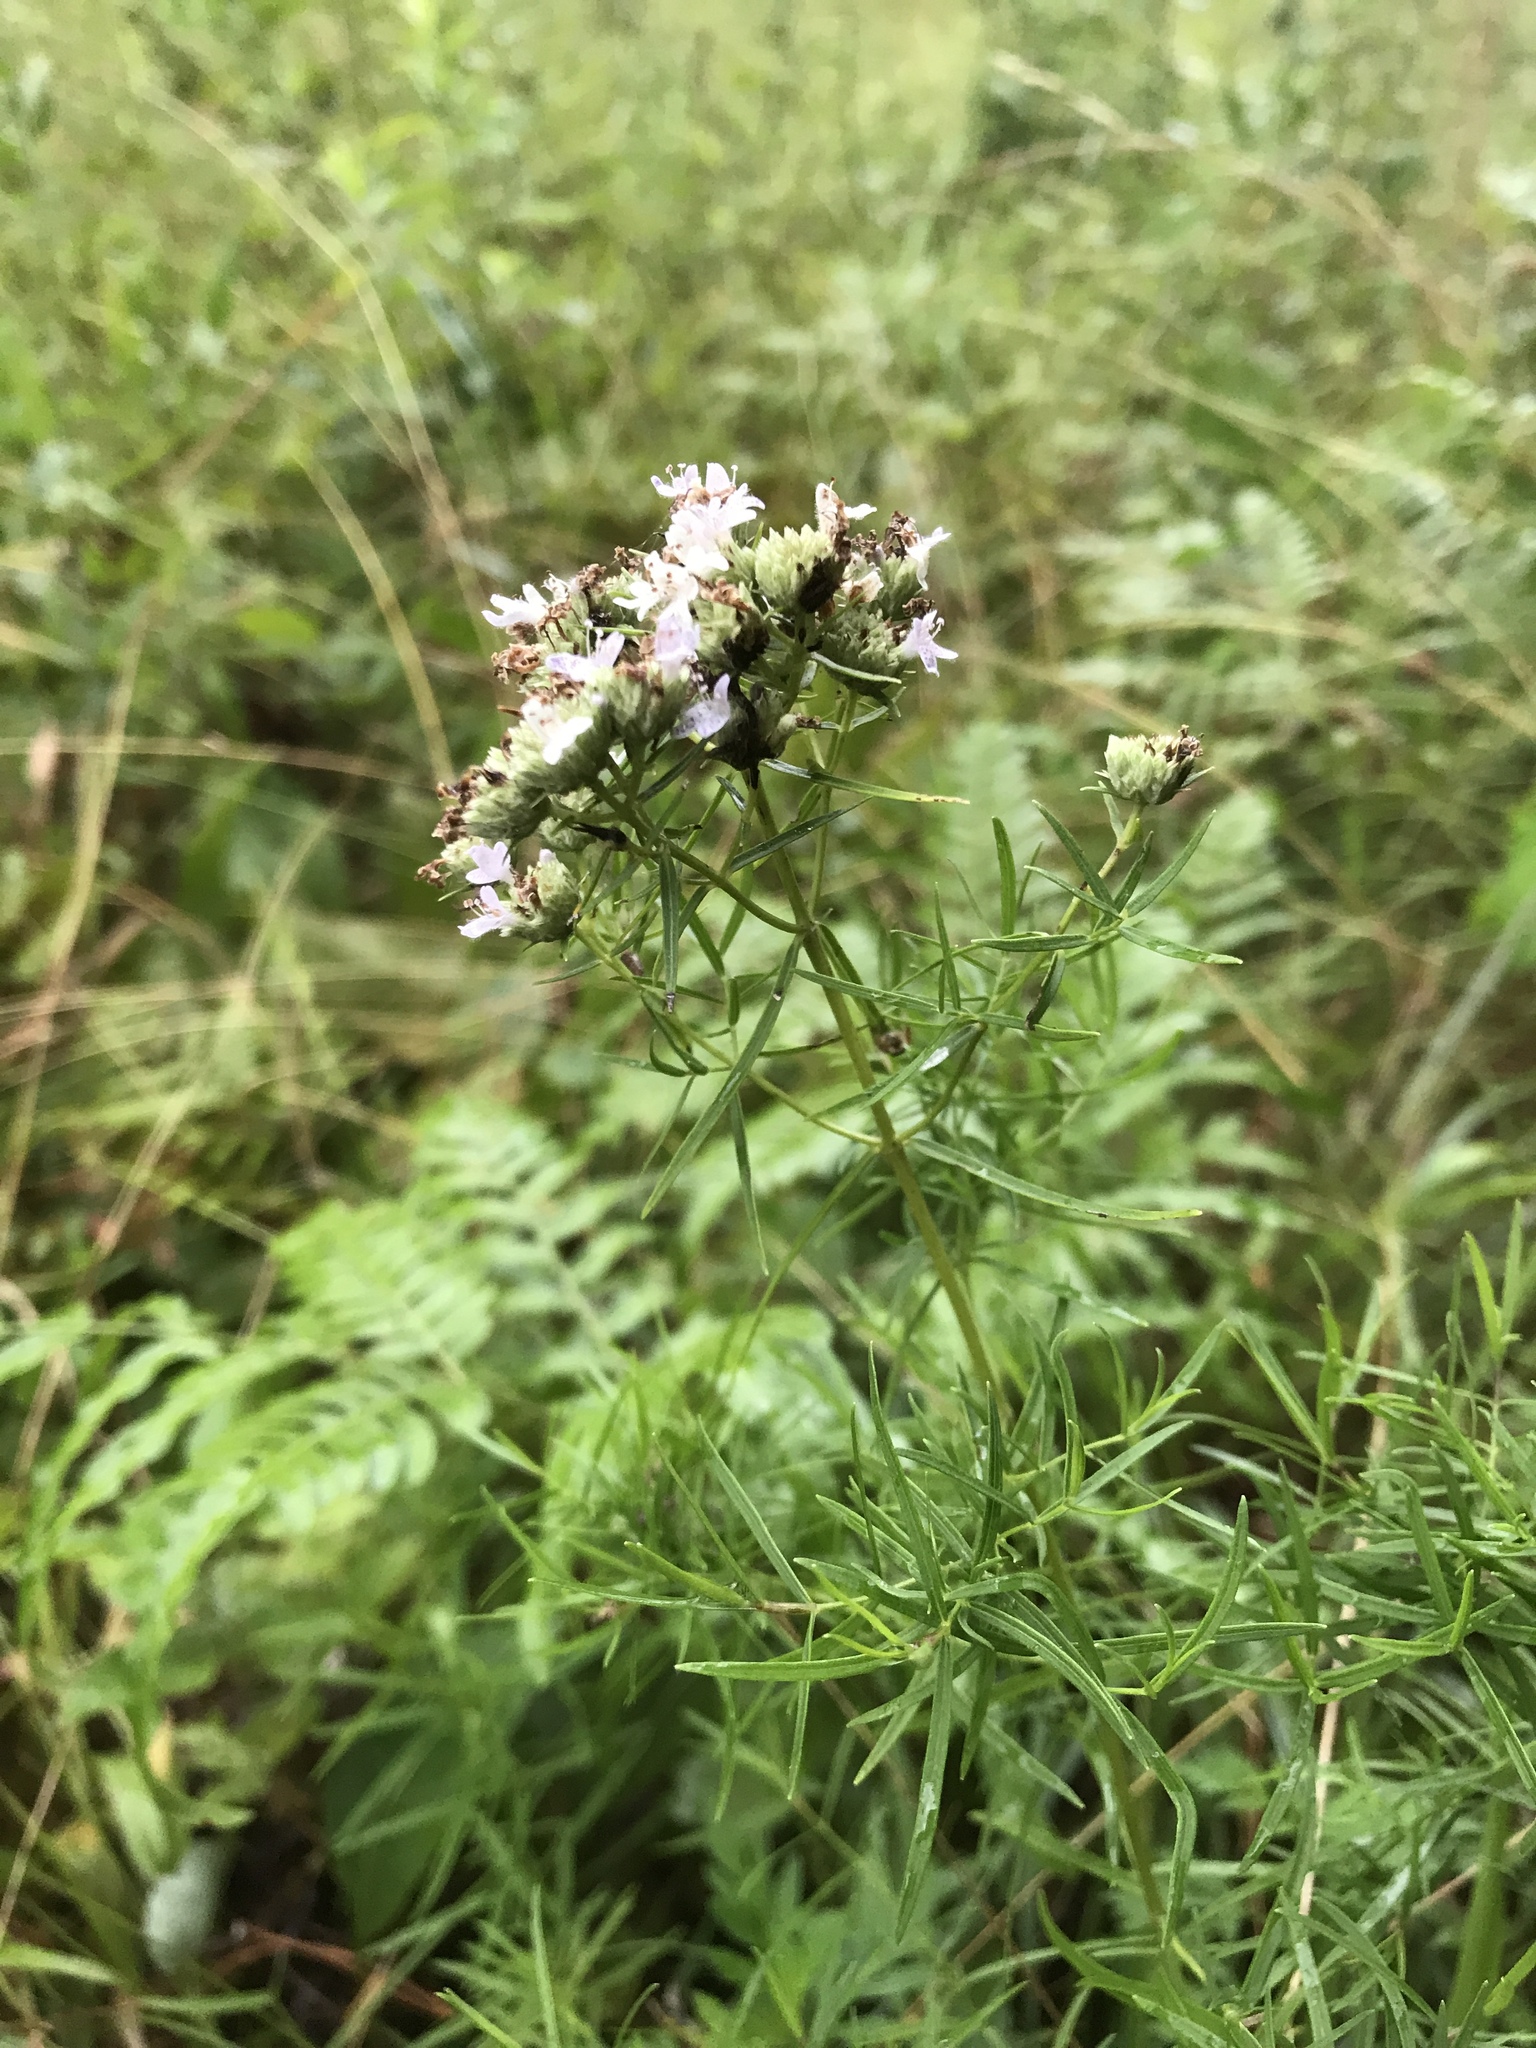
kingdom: Plantae
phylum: Tracheophyta
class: Magnoliopsida
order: Lamiales
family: Lamiaceae
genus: Pycnanthemum
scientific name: Pycnanthemum tenuifolium
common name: Narrow-leaf mountain-mint
